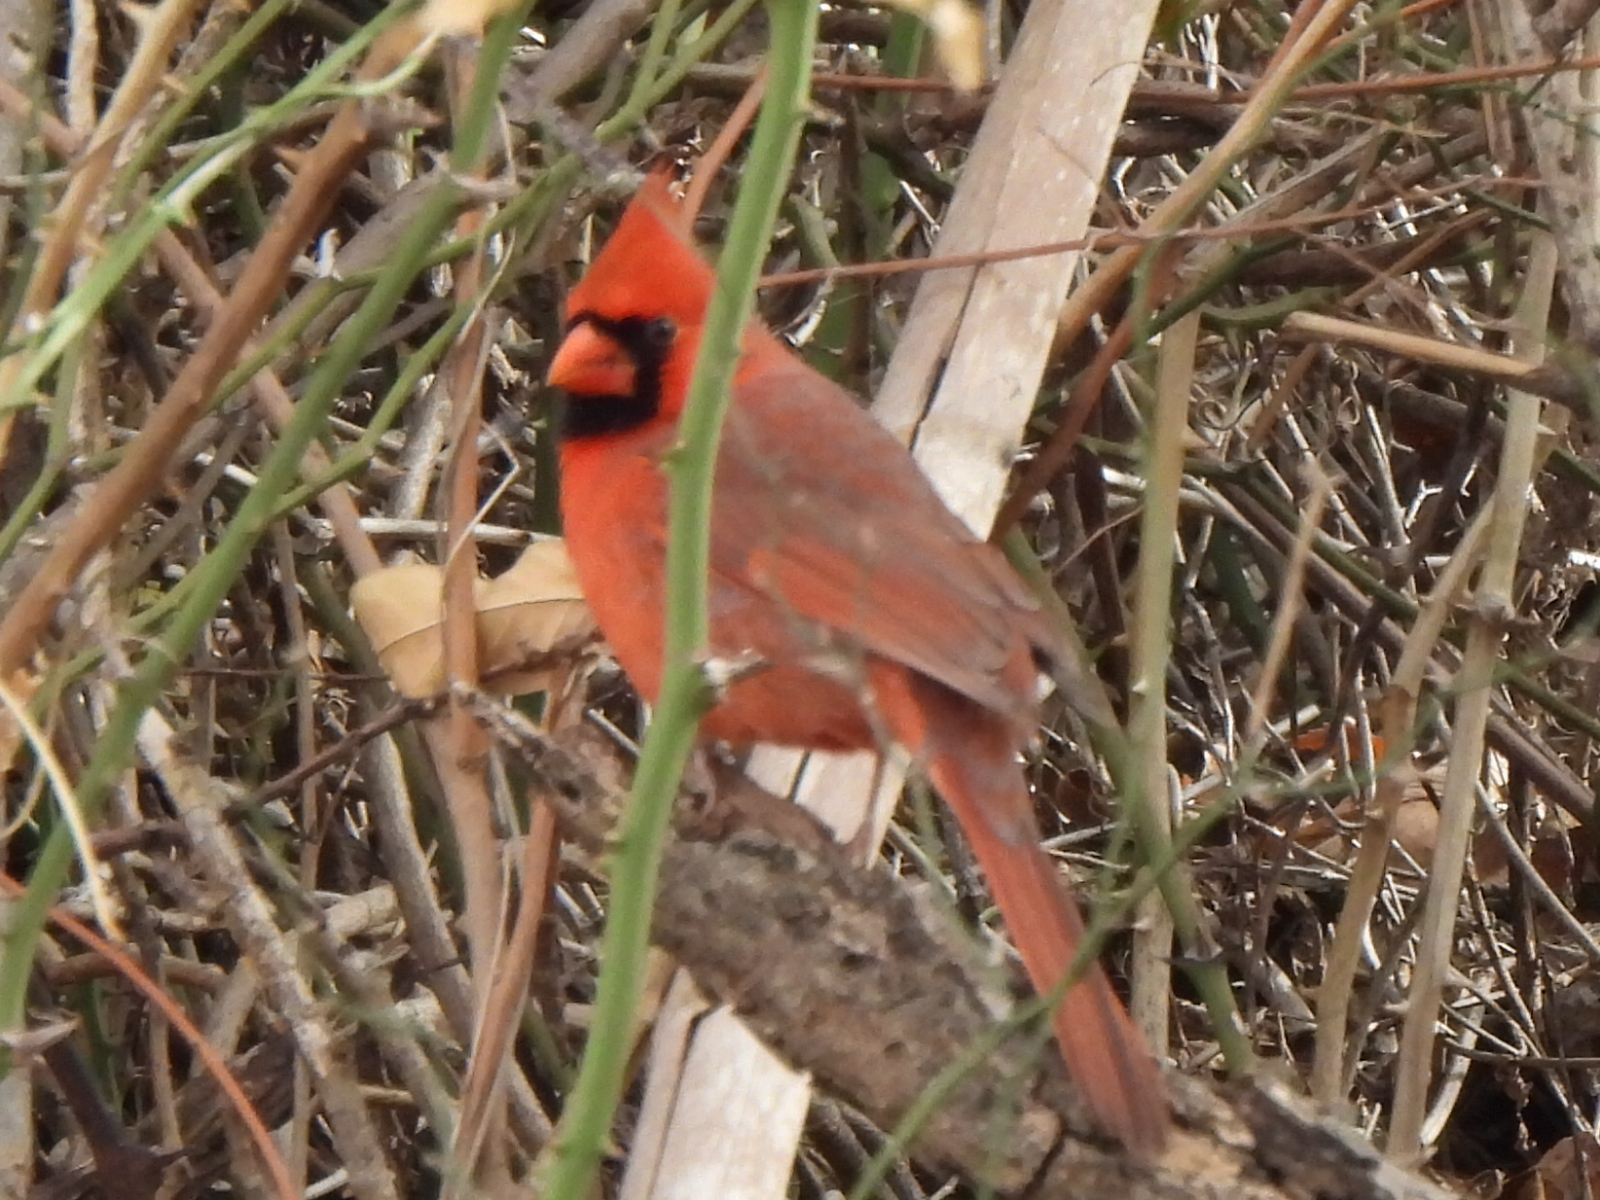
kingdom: Animalia
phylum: Chordata
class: Aves
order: Passeriformes
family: Cardinalidae
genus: Cardinalis
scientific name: Cardinalis cardinalis
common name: Northern cardinal
